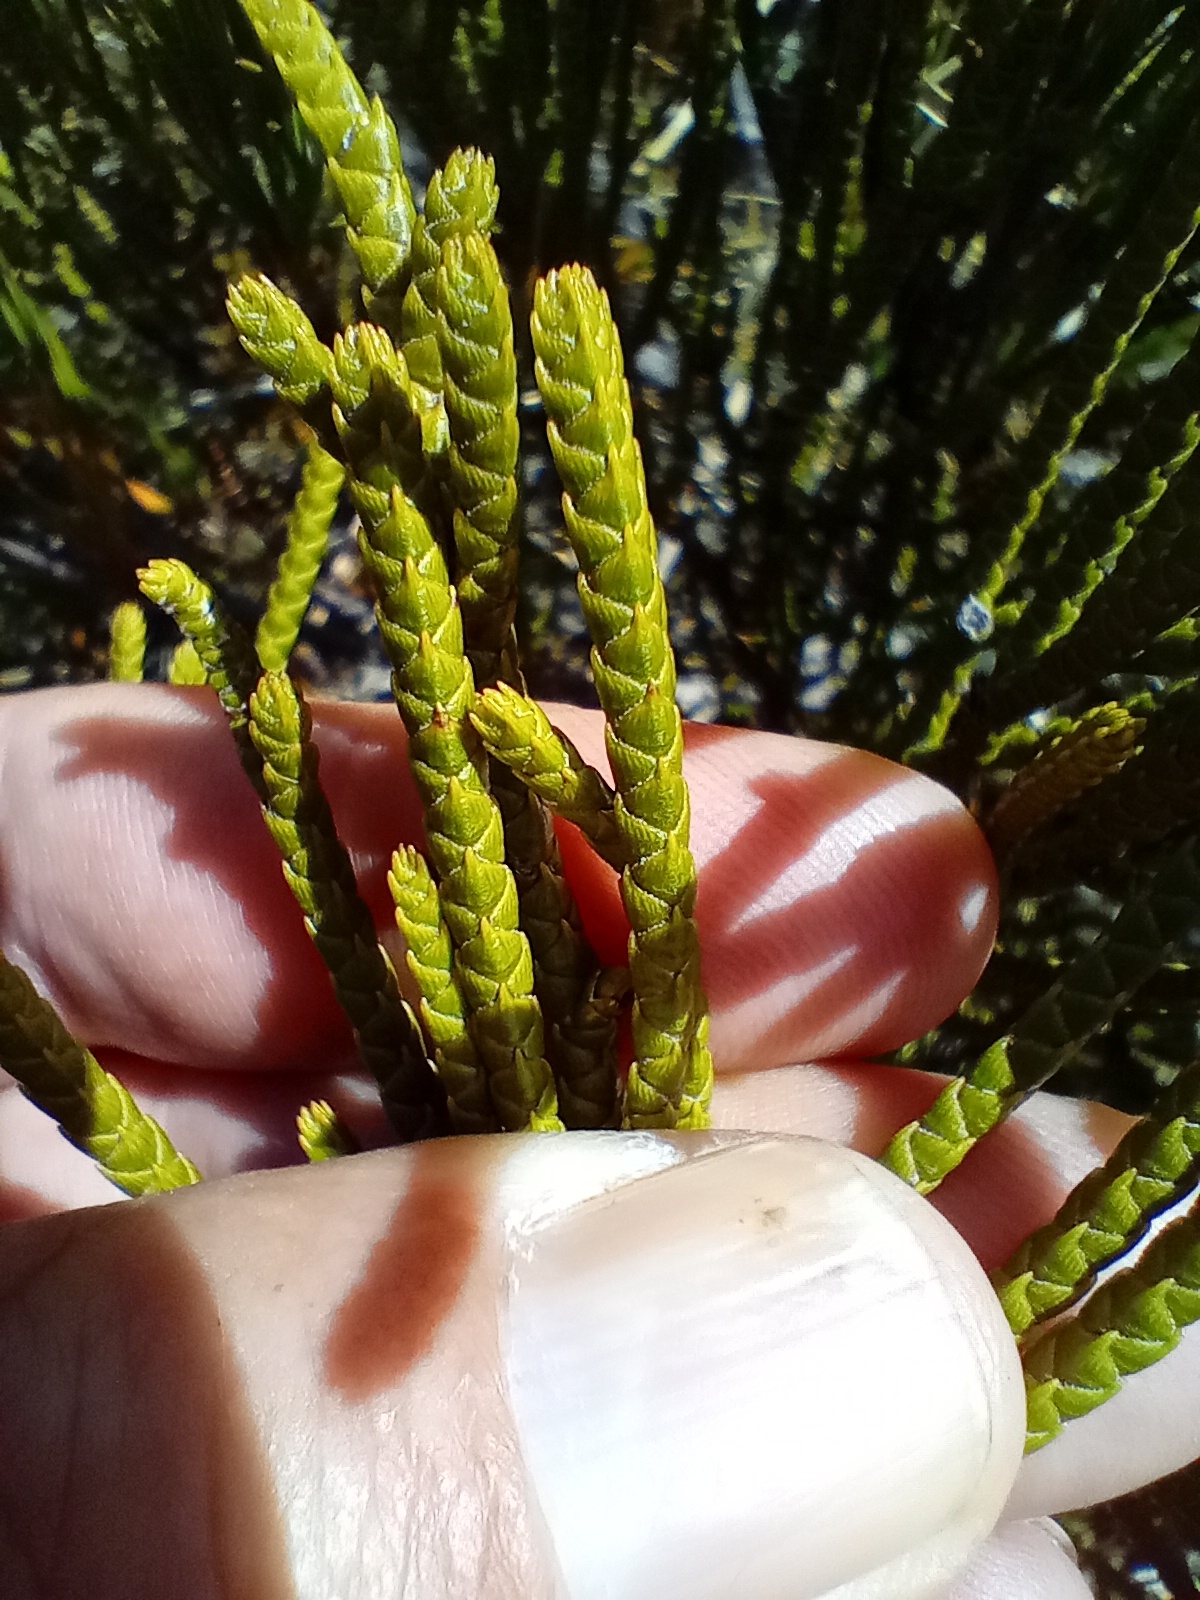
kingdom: Plantae
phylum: Tracheophyta
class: Magnoliopsida
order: Lamiales
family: Plantaginaceae
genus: Veronica
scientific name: Veronica lycopodioides
